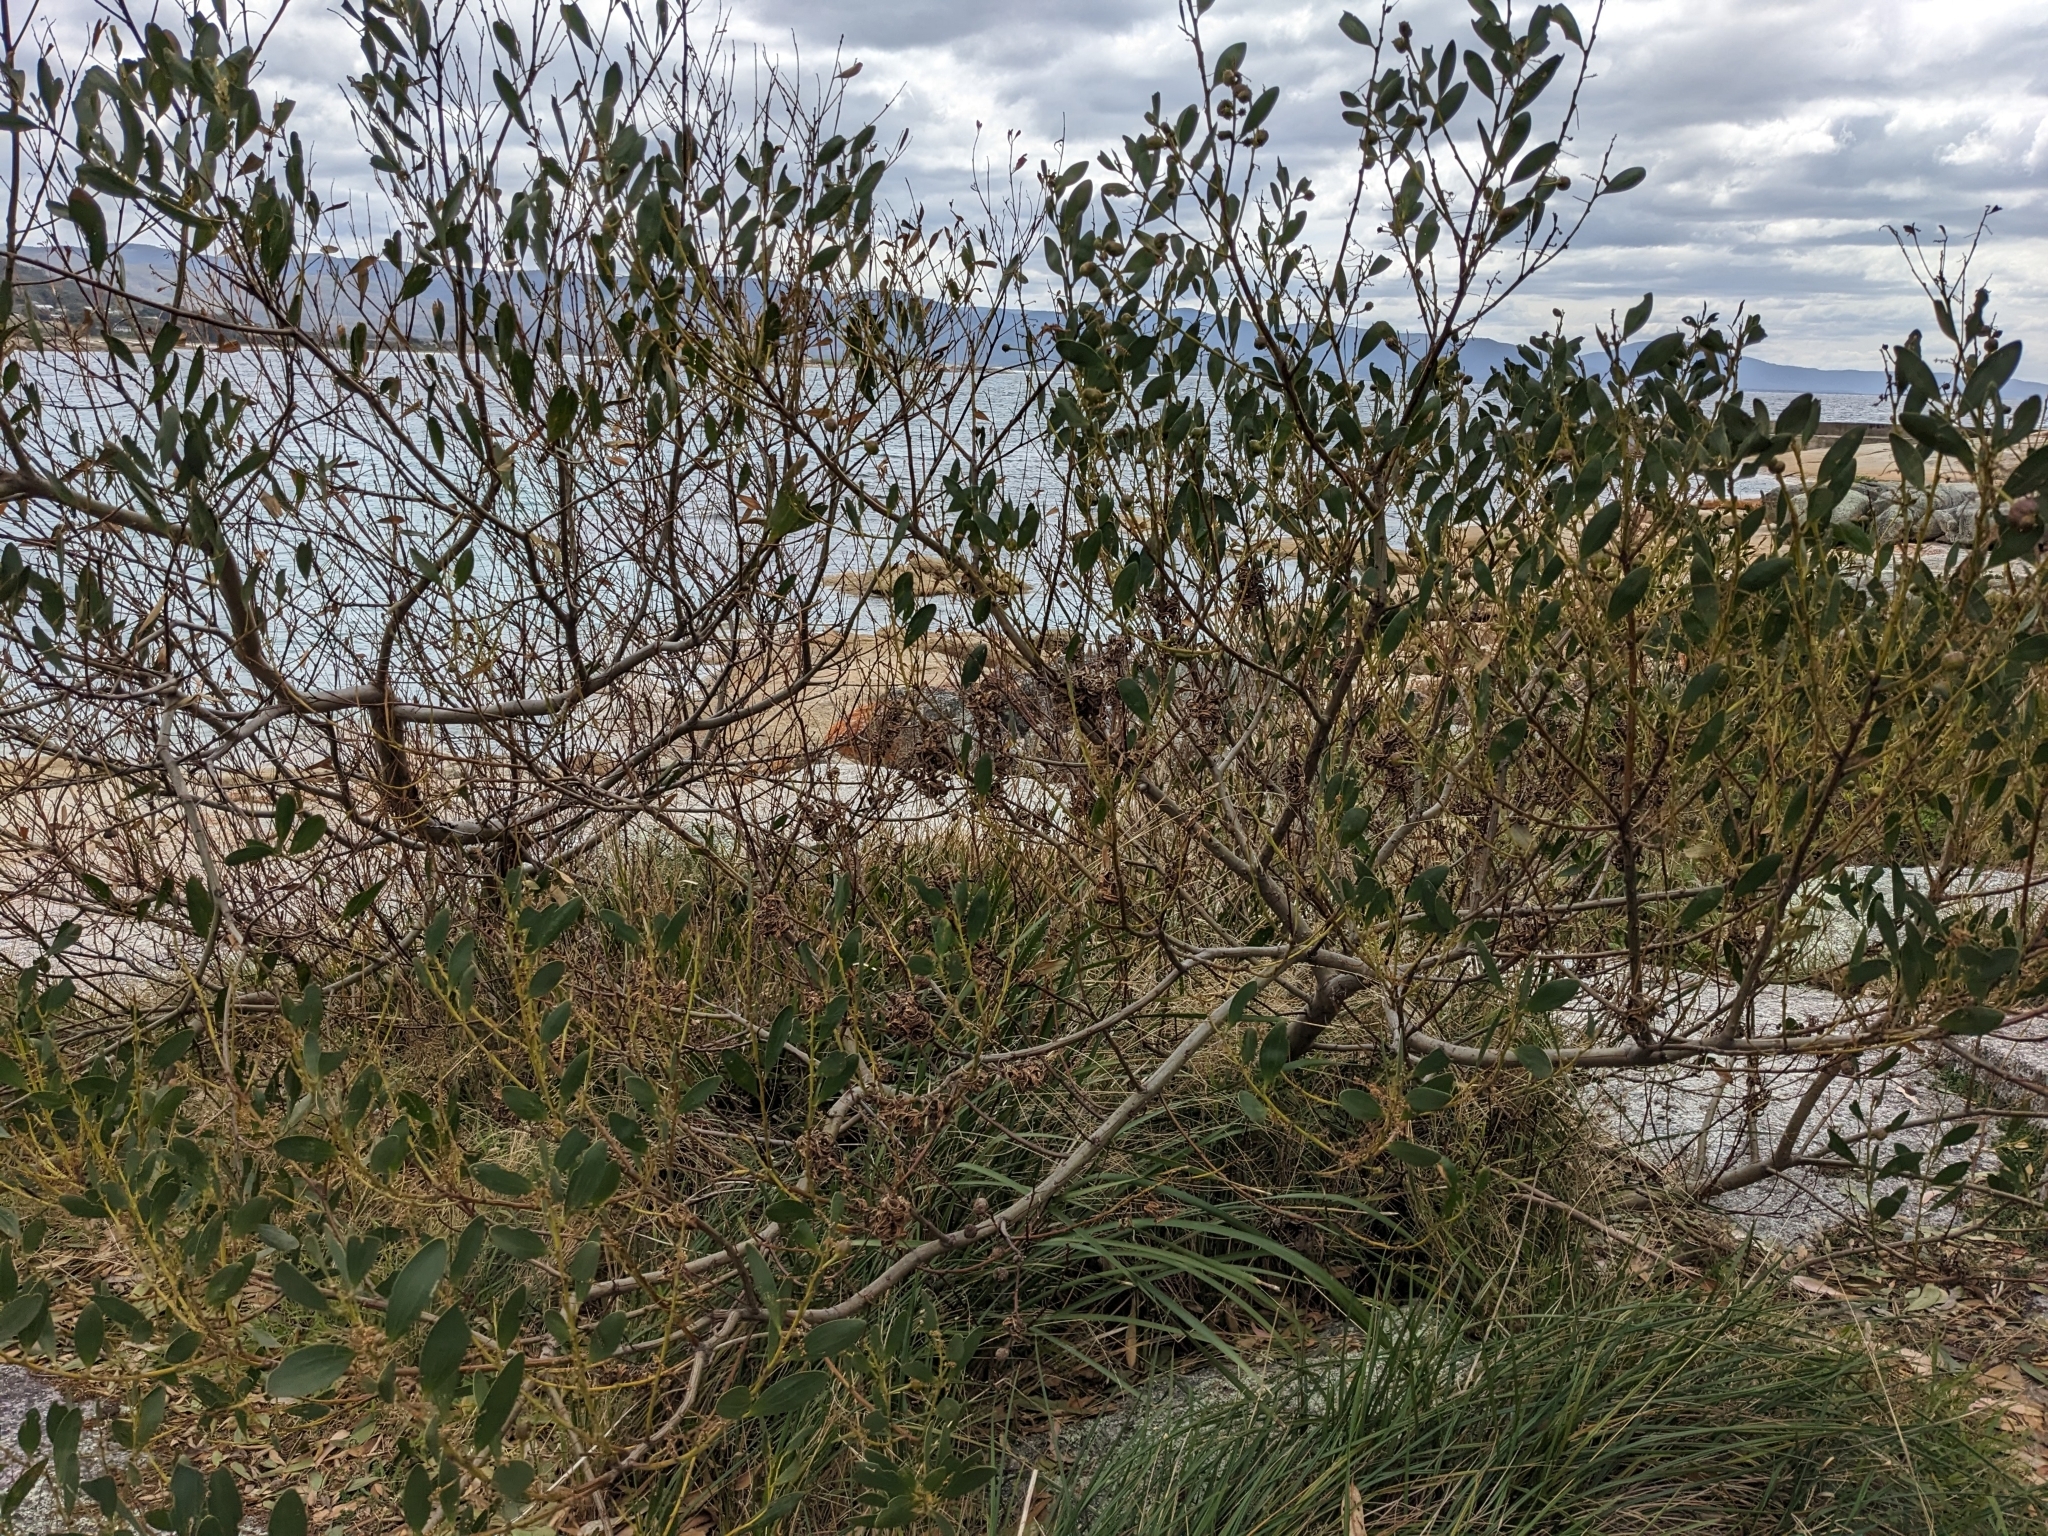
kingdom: Plantae
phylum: Tracheophyta
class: Magnoliopsida
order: Fabales
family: Fabaceae
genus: Acacia
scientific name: Acacia longifolia
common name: Sydney golden wattle
